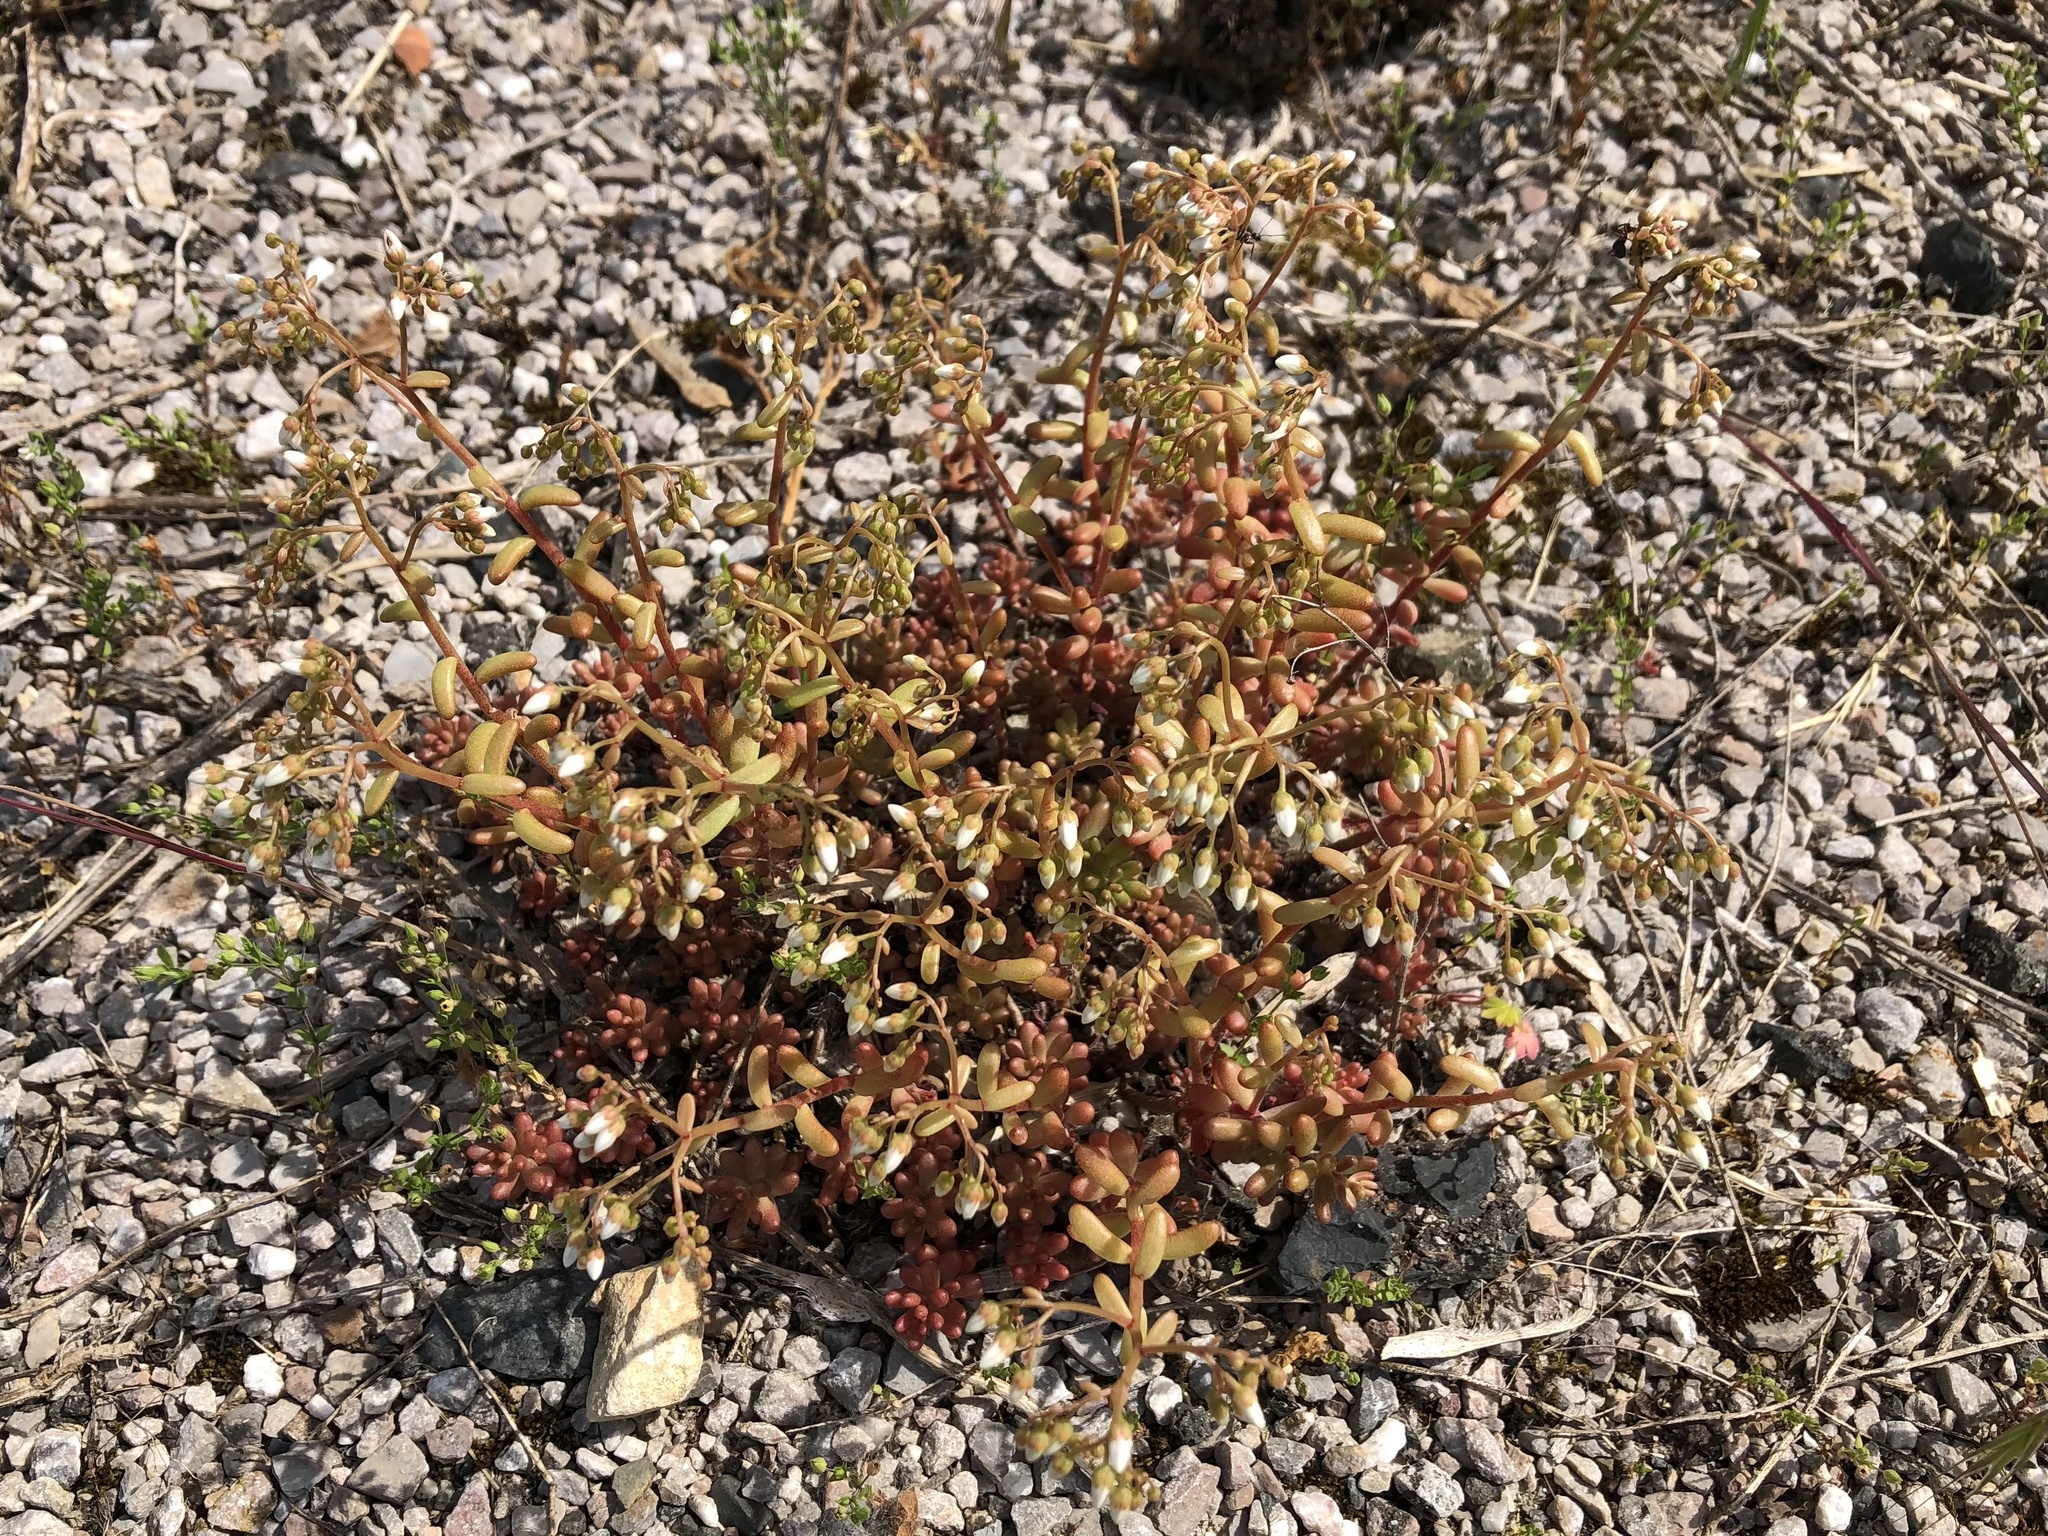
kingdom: Plantae
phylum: Tracheophyta
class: Magnoliopsida
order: Saxifragales
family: Crassulaceae
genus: Sedum
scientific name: Sedum album
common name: White stonecrop
